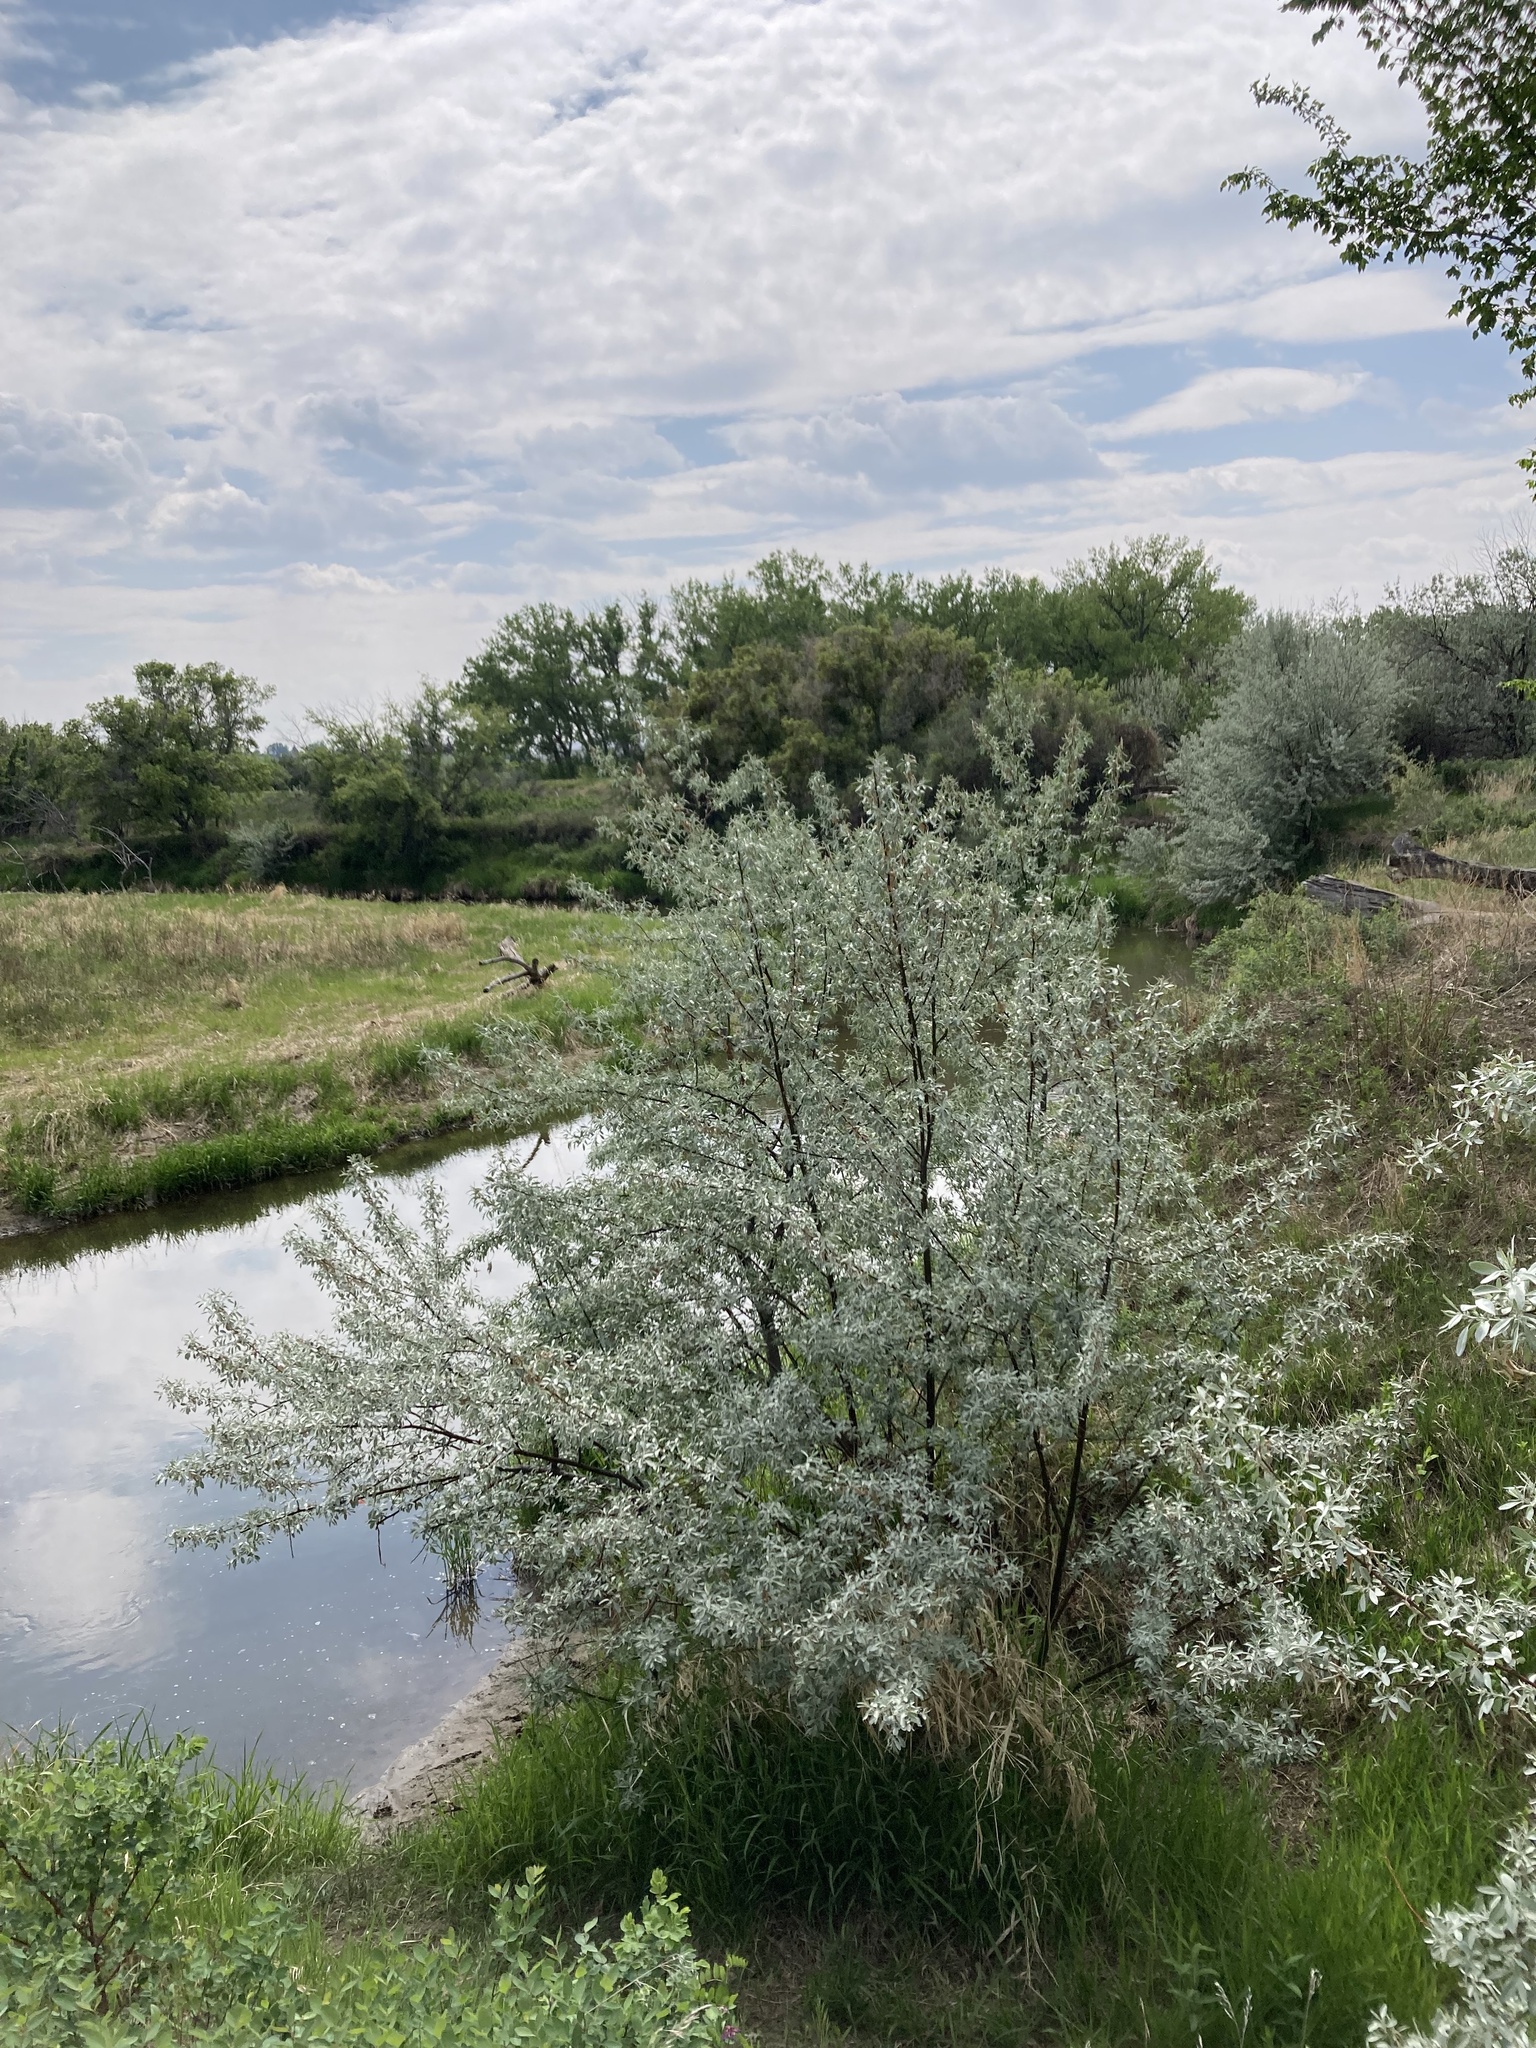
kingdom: Plantae
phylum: Tracheophyta
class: Magnoliopsida
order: Rosales
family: Elaeagnaceae
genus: Elaeagnus
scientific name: Elaeagnus angustifolia
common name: Russian olive
